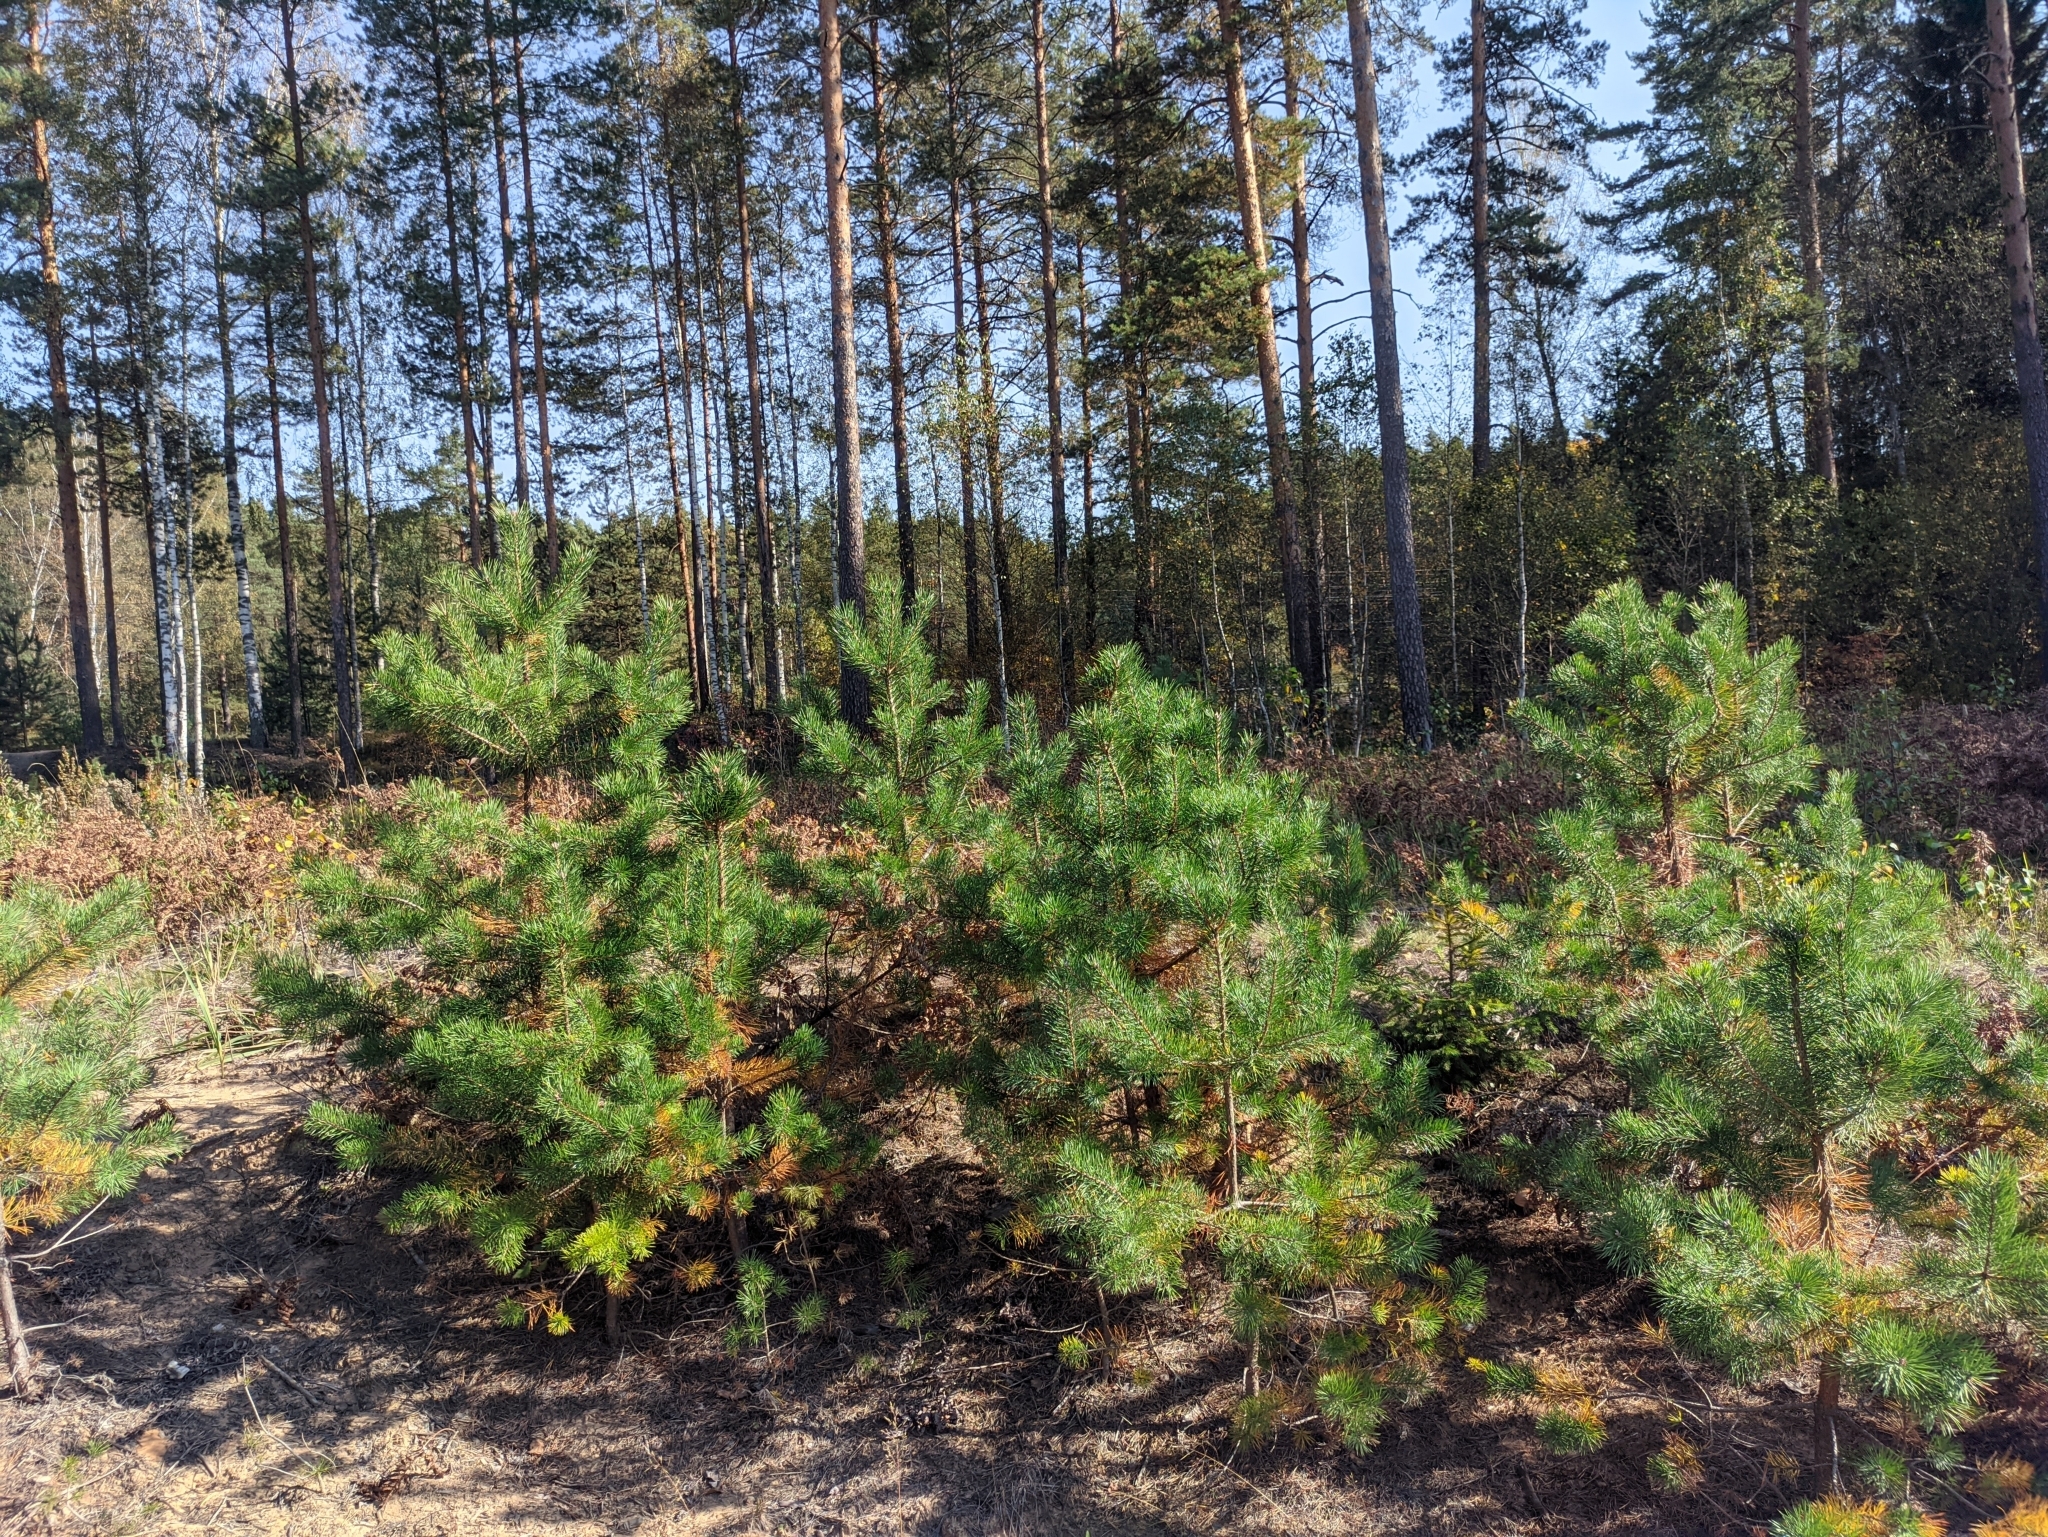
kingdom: Plantae
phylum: Tracheophyta
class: Pinopsida
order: Pinales
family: Pinaceae
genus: Pinus
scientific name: Pinus sylvestris
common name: Scots pine
